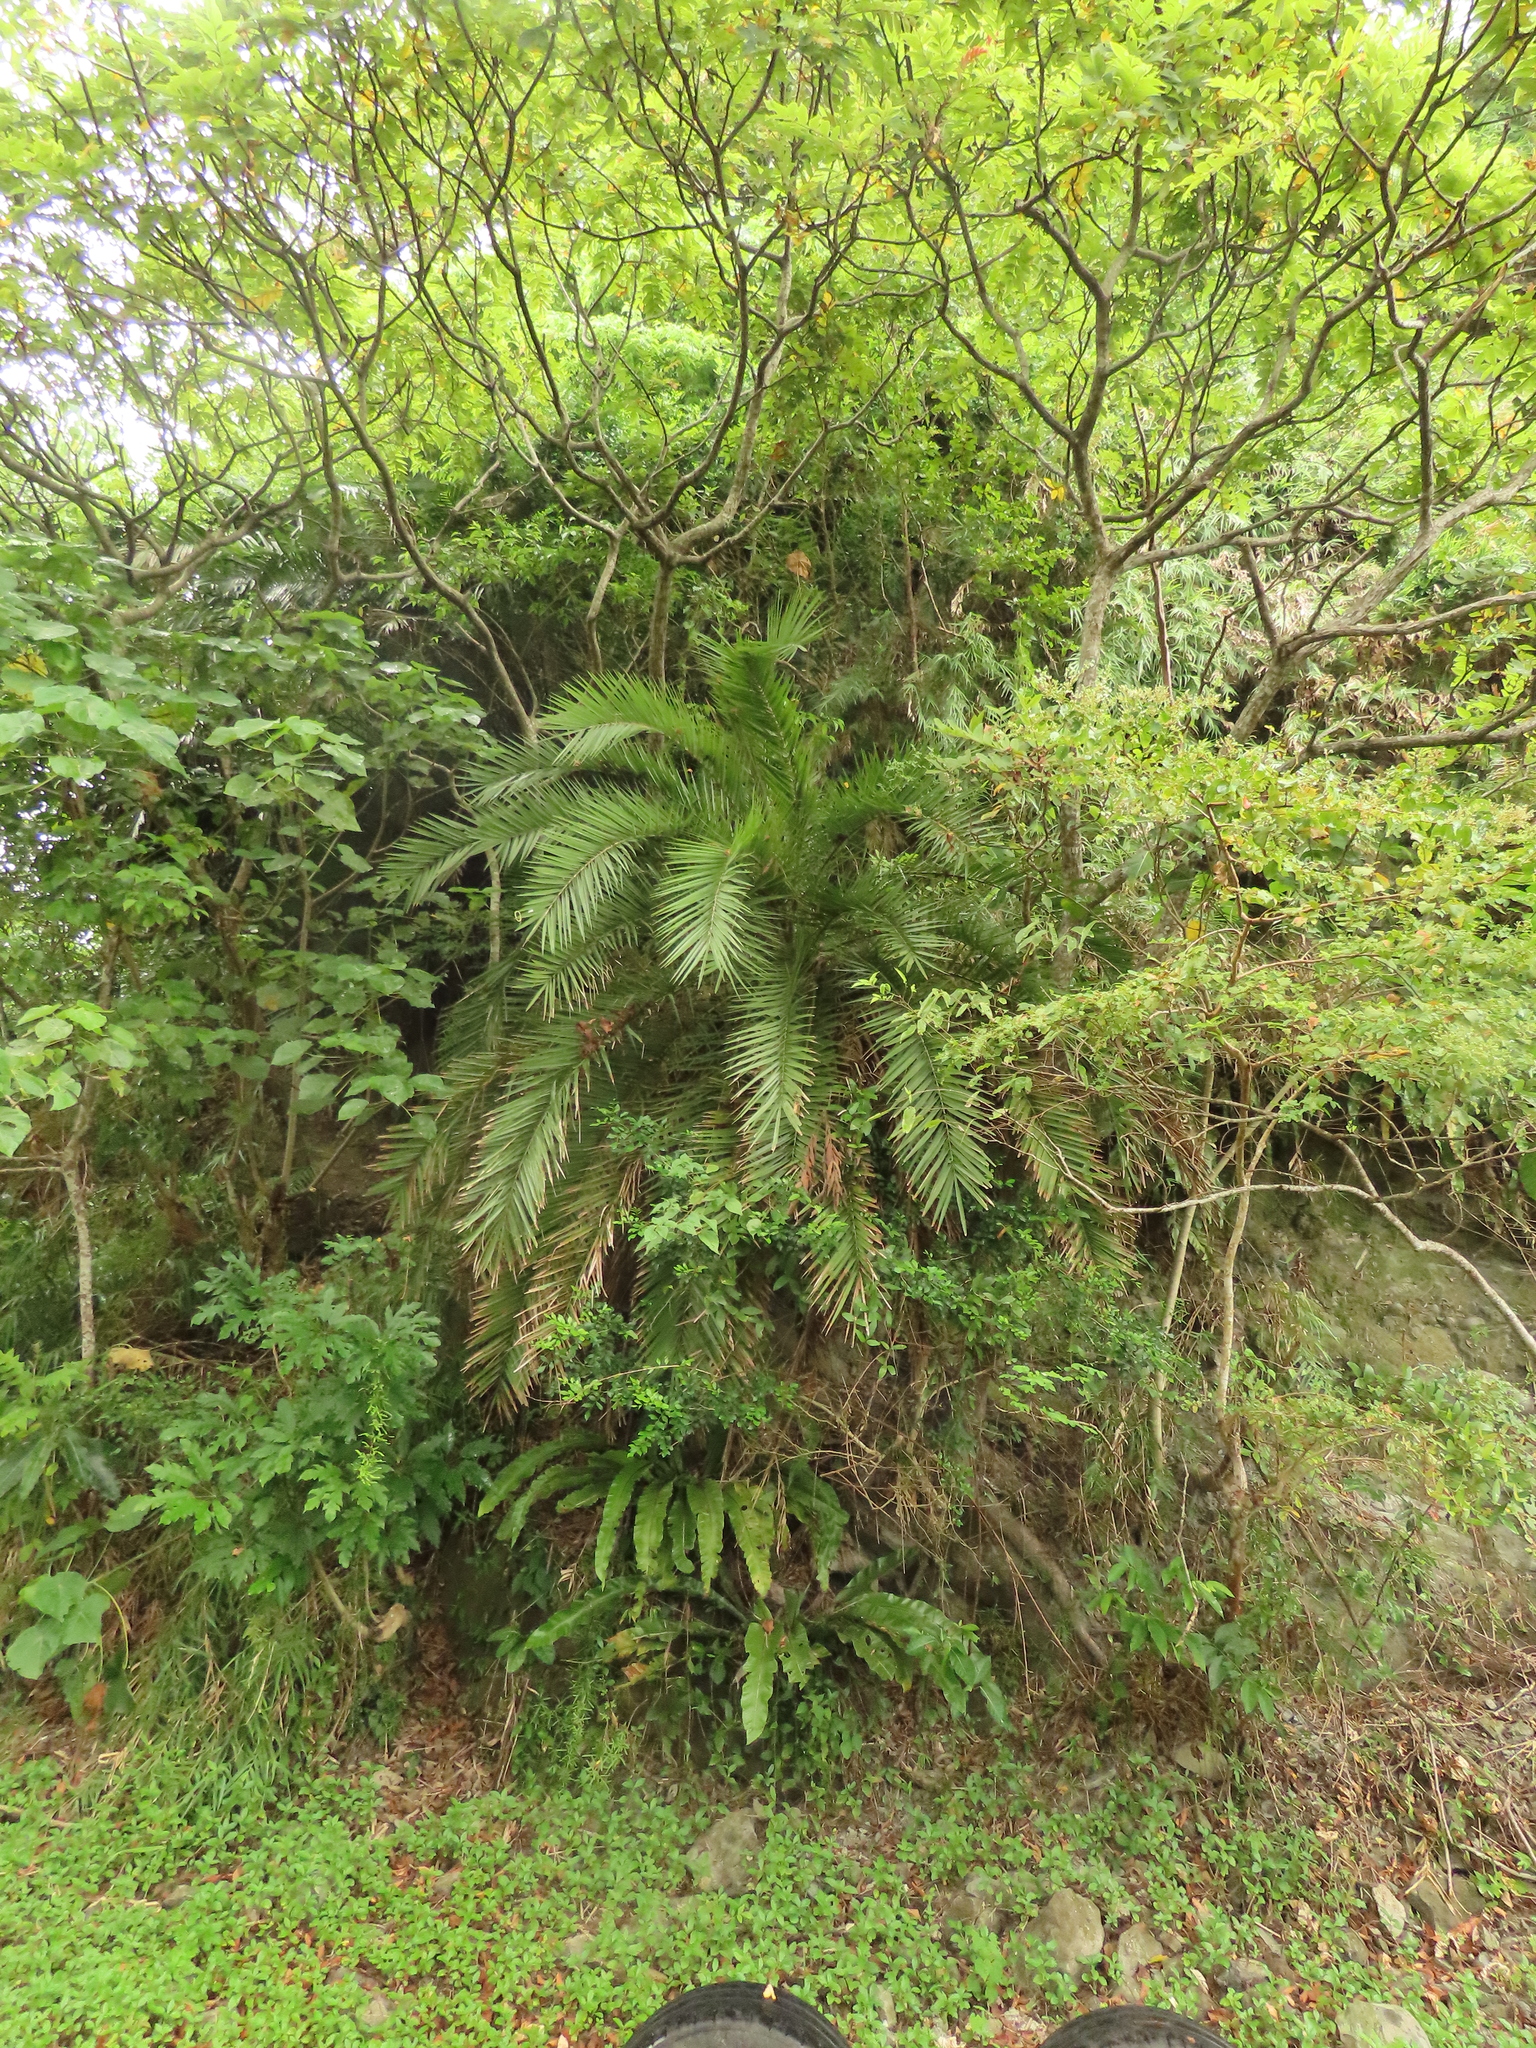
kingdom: Plantae
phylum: Tracheophyta
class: Liliopsida
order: Arecales
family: Arecaceae
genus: Phoenix
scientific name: Phoenix loureiroi
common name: Loureiro's palm
